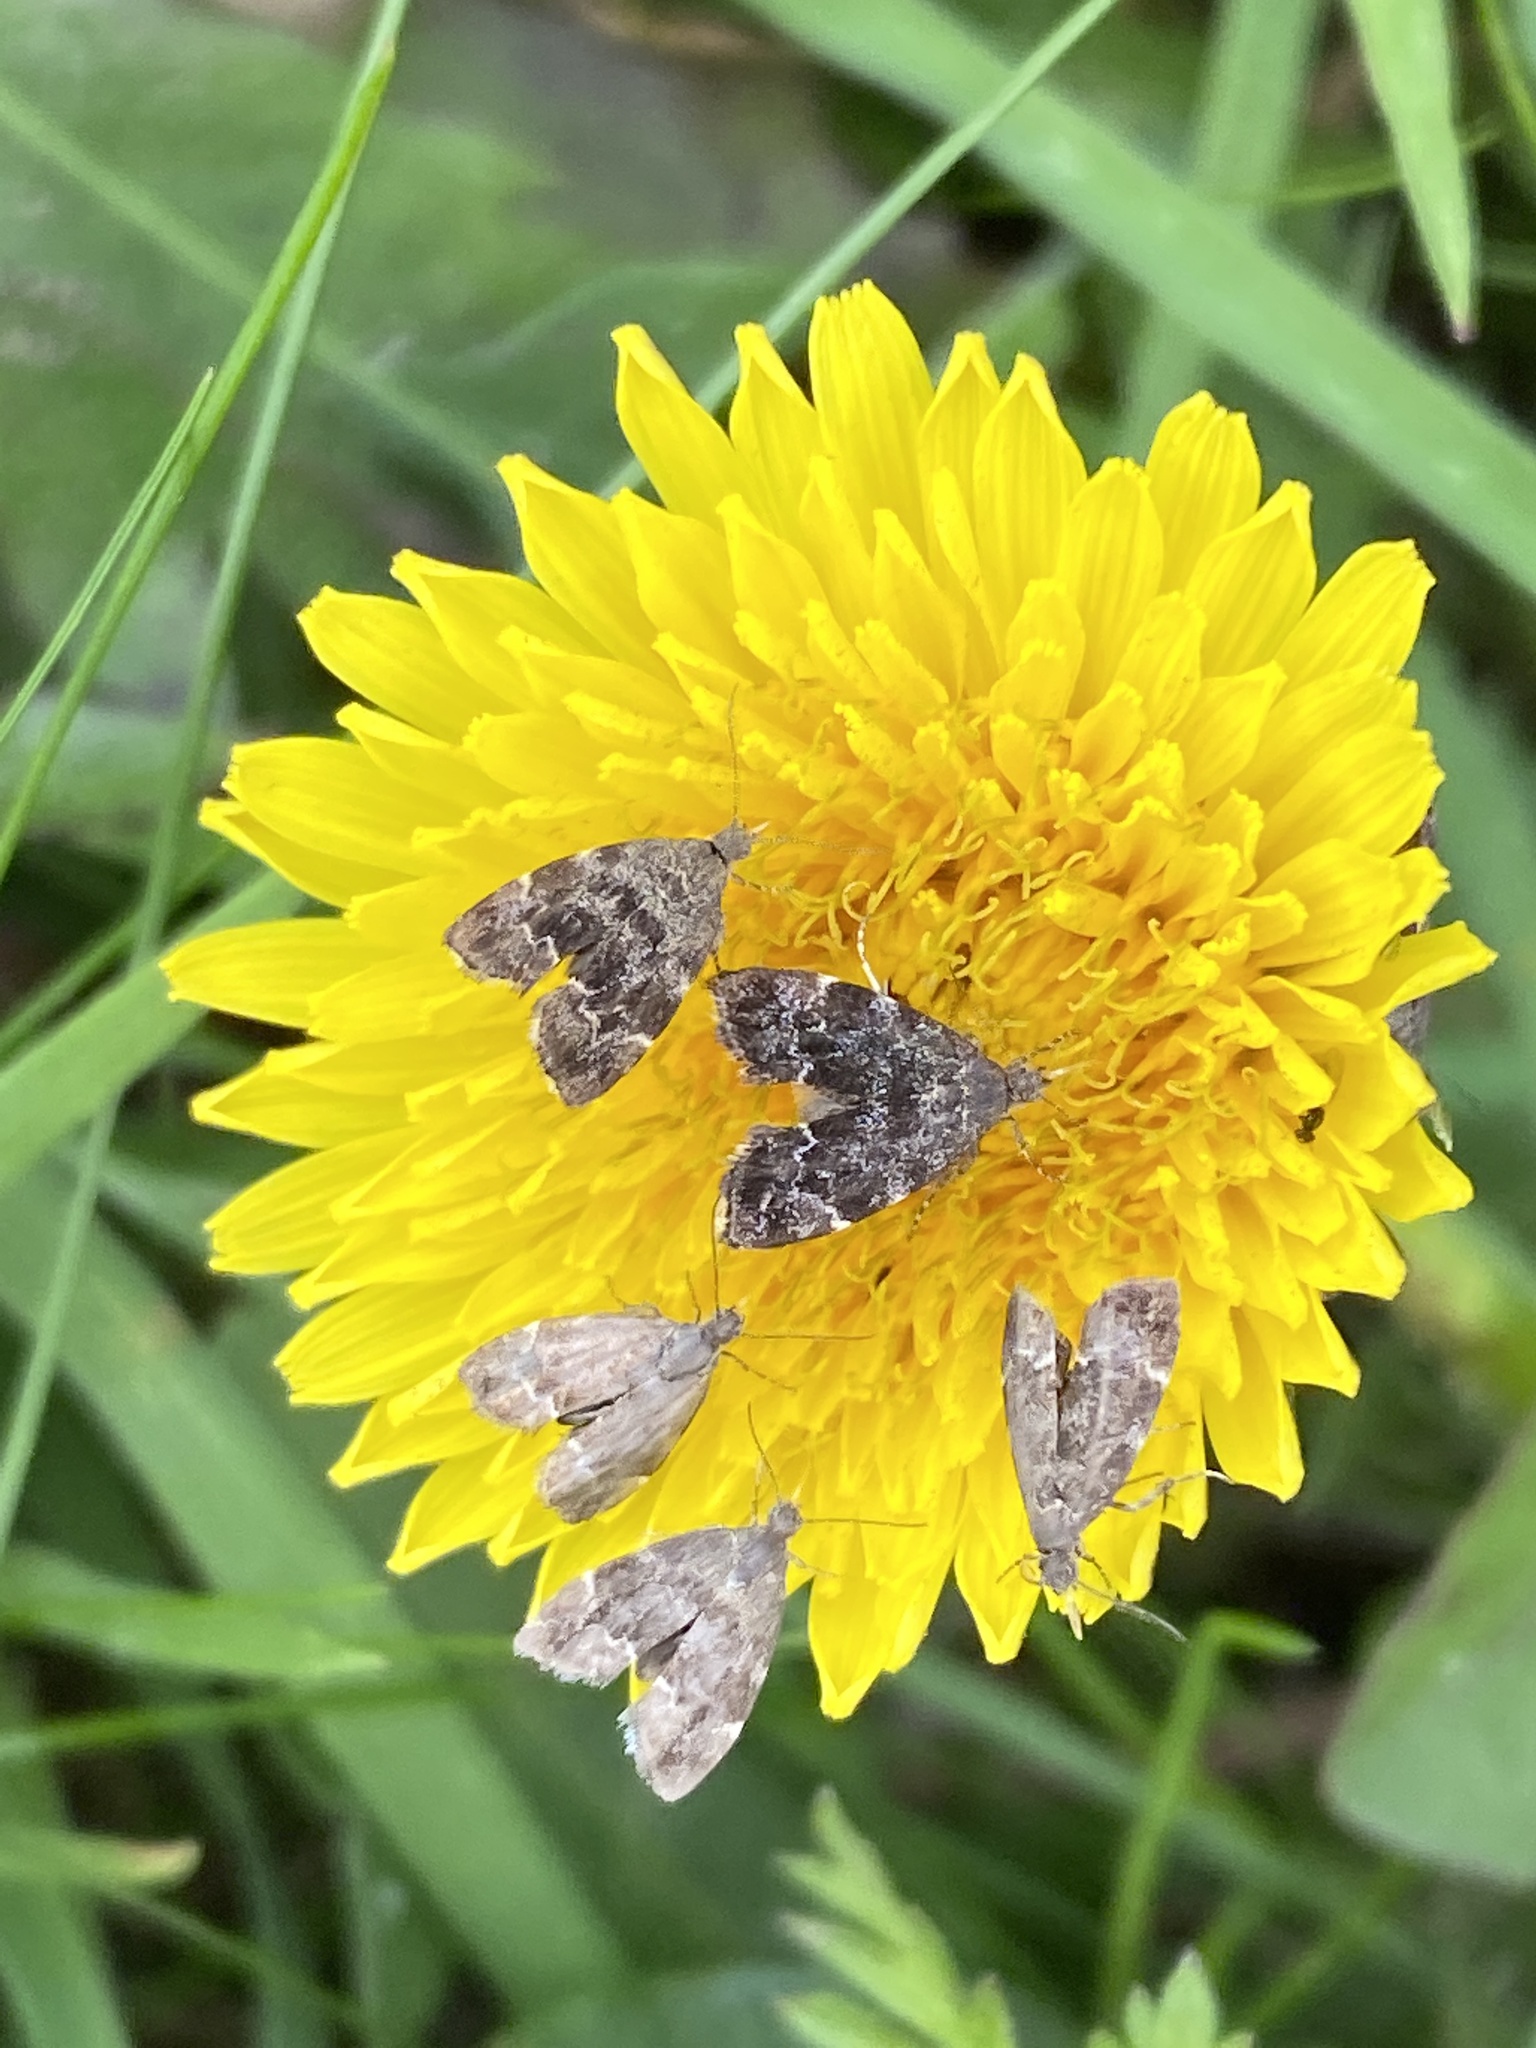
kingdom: Animalia
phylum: Arthropoda
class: Insecta
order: Lepidoptera
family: Choreutidae
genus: Anthophila
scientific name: Anthophila fabriciana
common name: Nettle-tap
